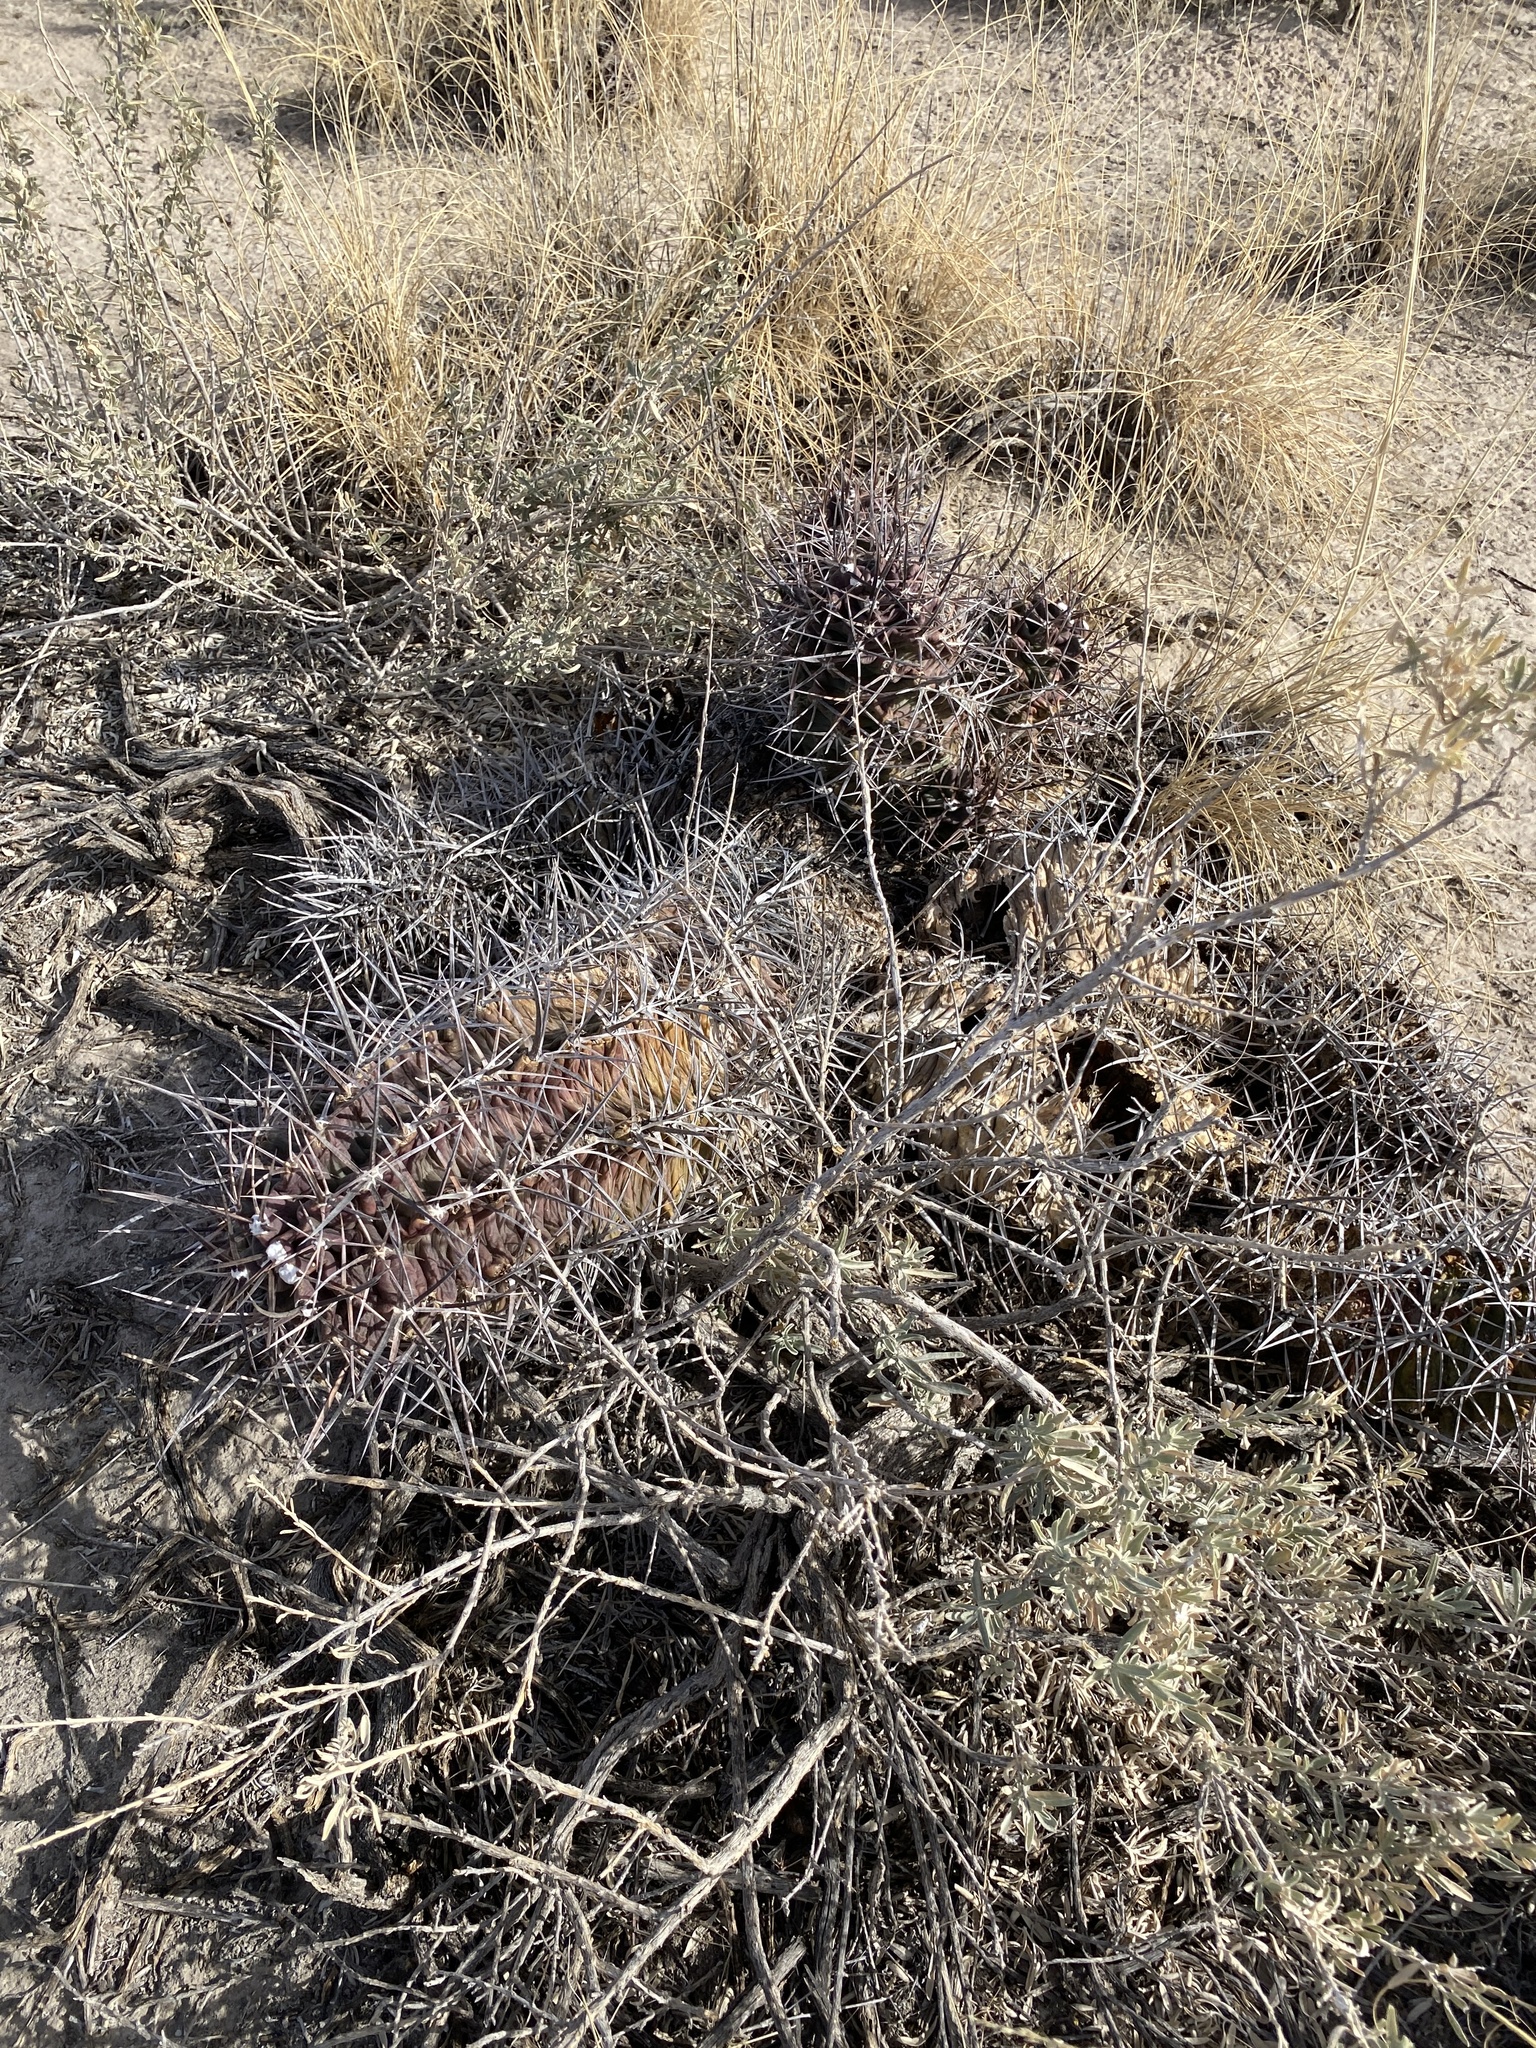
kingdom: Plantae
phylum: Tracheophyta
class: Magnoliopsida
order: Caryophyllales
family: Cactaceae
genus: Echinocereus
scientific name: Echinocereus triglochidiatus
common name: Claretcup hedgehog
